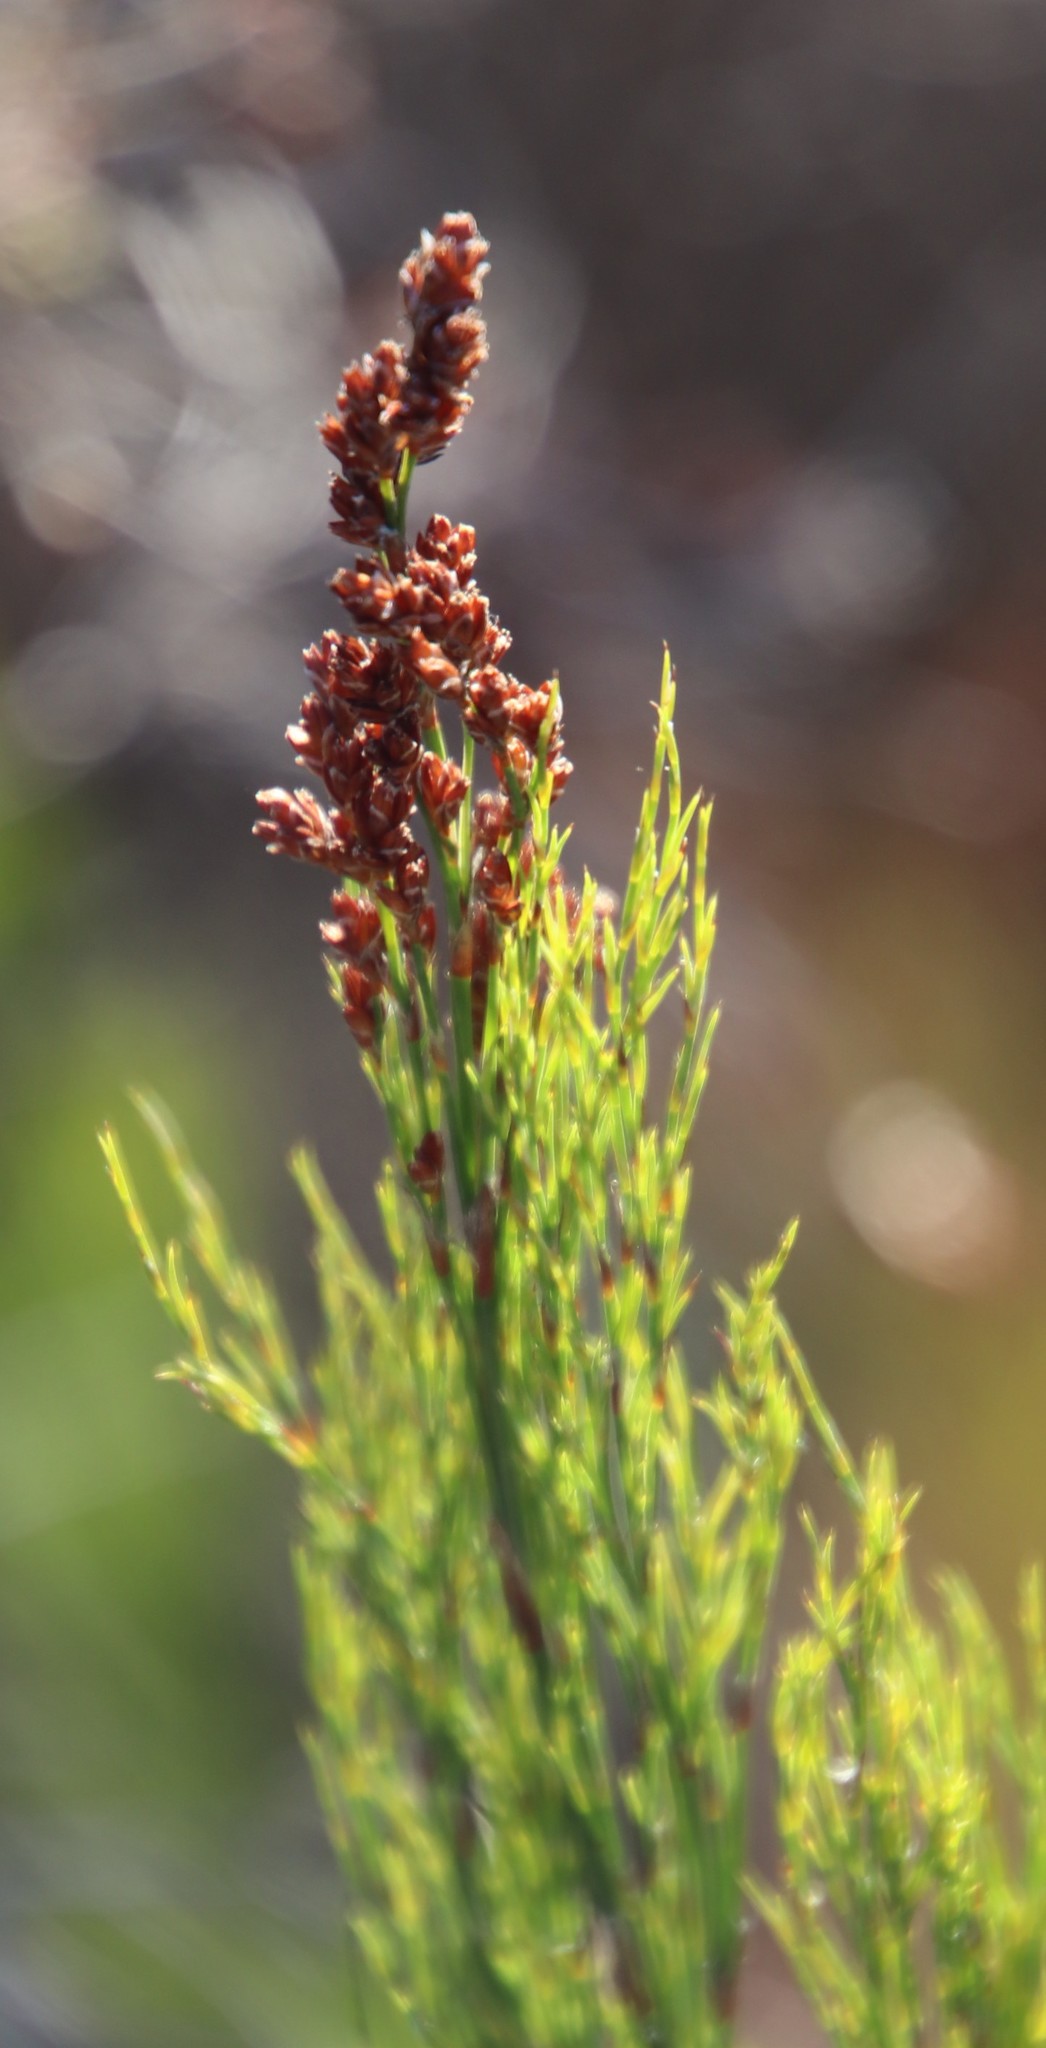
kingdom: Plantae
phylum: Tracheophyta
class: Liliopsida
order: Poales
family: Restionaceae
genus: Restio
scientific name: Restio paniculatus
